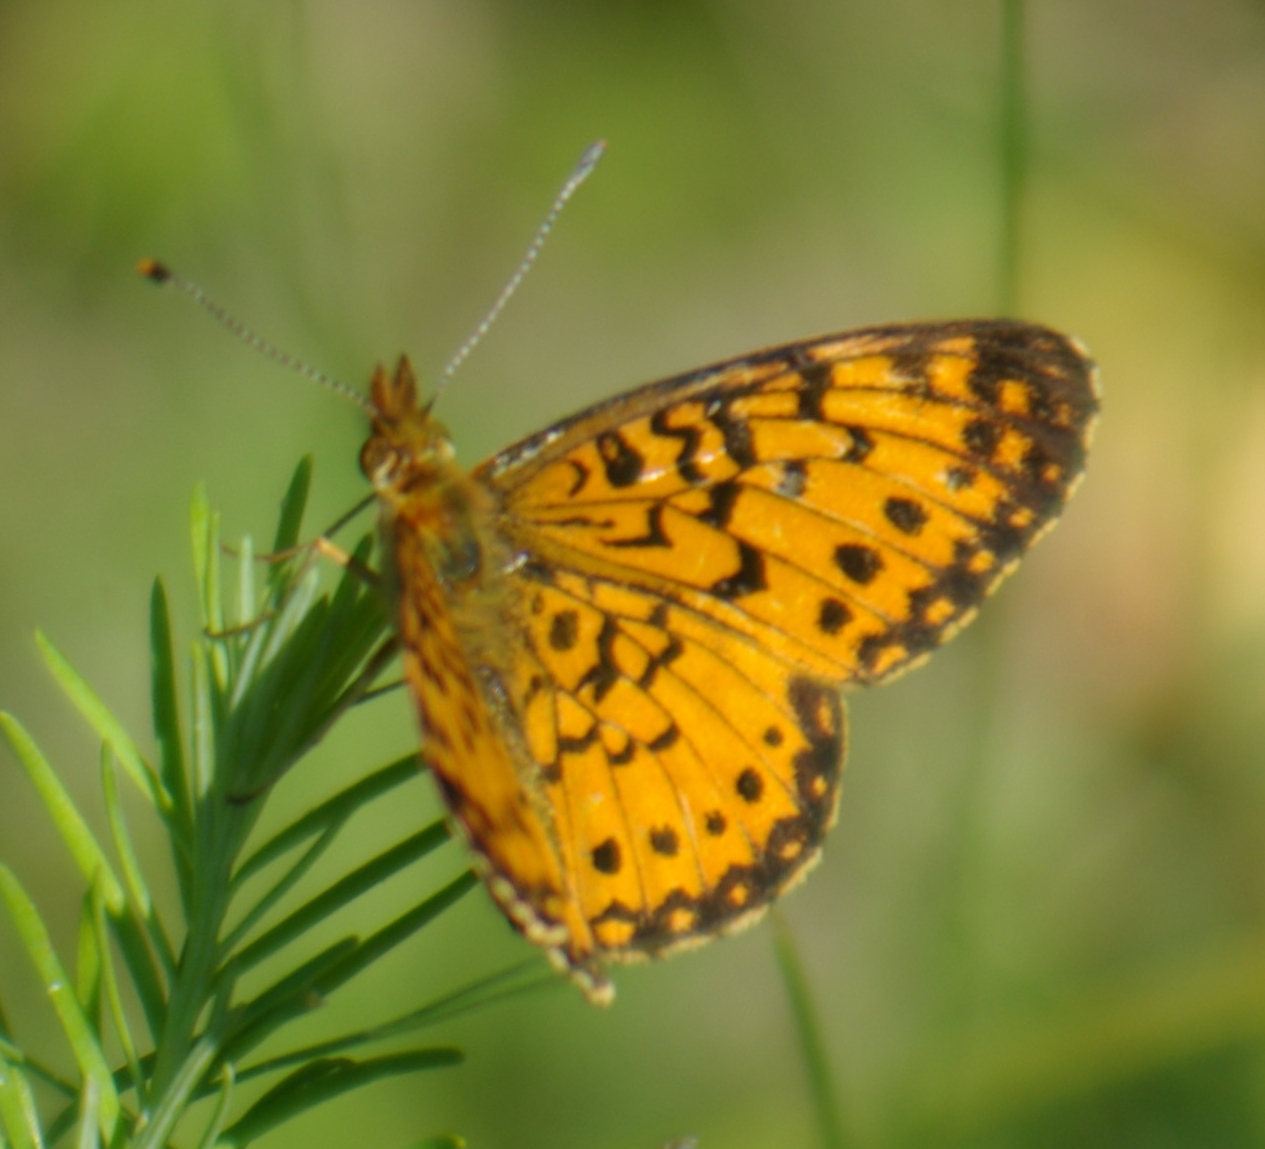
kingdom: Animalia
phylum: Arthropoda
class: Insecta
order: Lepidoptera
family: Nymphalidae
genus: Boloria
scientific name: Boloria
